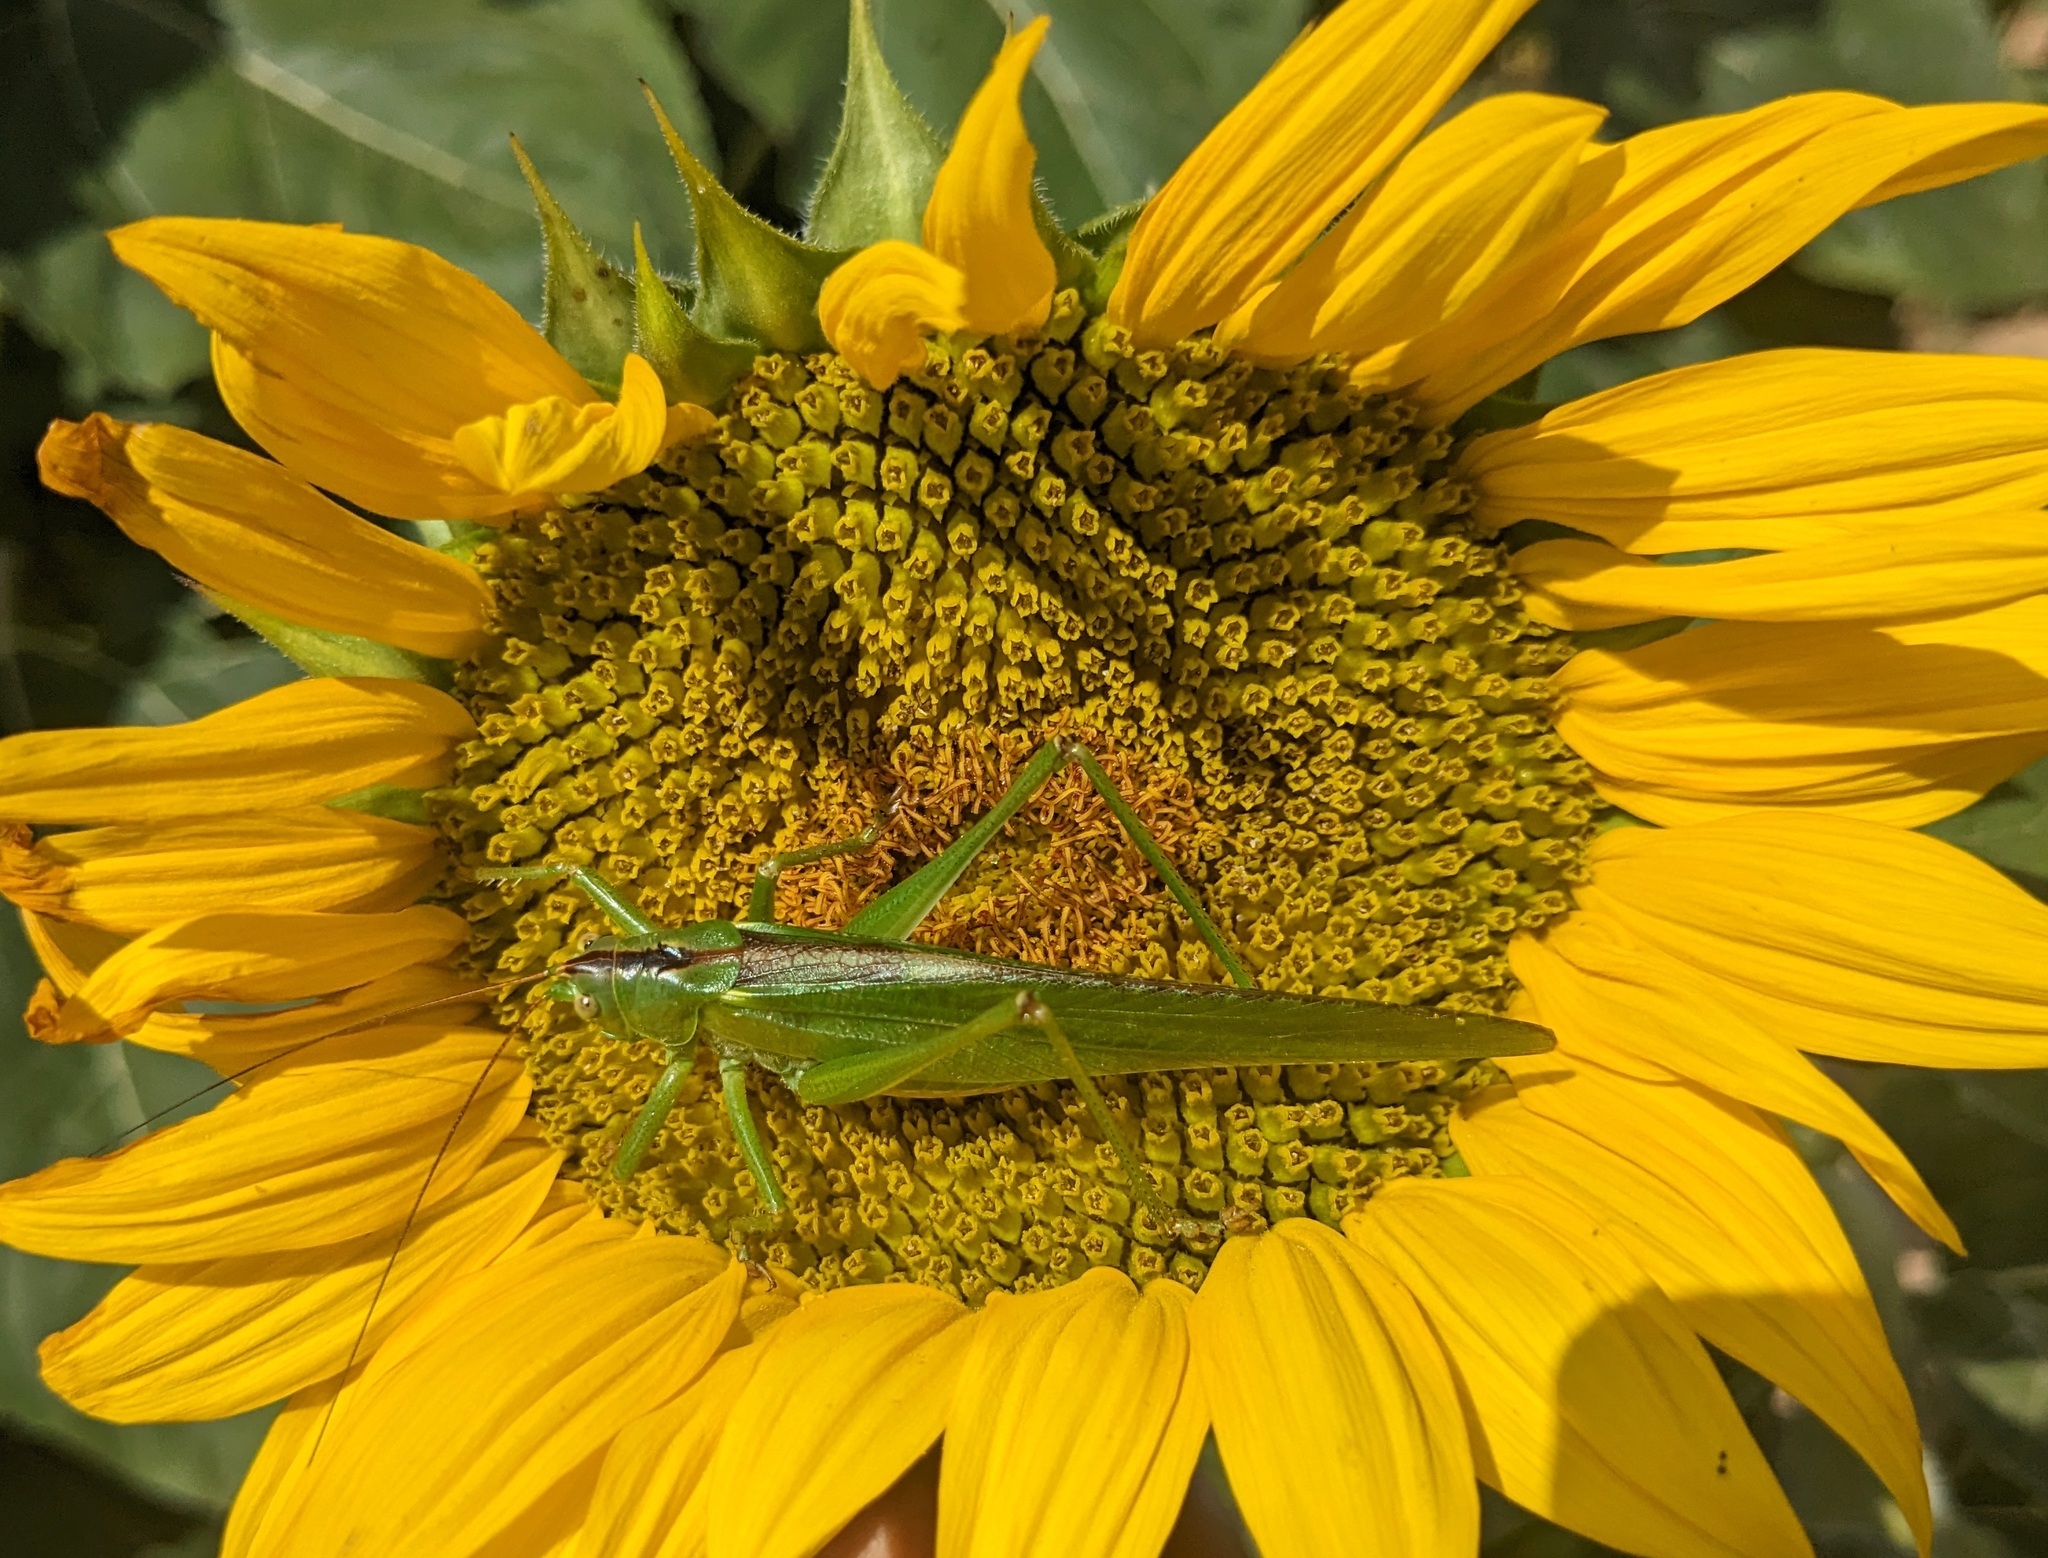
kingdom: Animalia
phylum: Arthropoda
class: Insecta
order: Orthoptera
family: Tettigoniidae
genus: Tettigonia
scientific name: Tettigonia viridissima
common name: Great green bush-cricket
